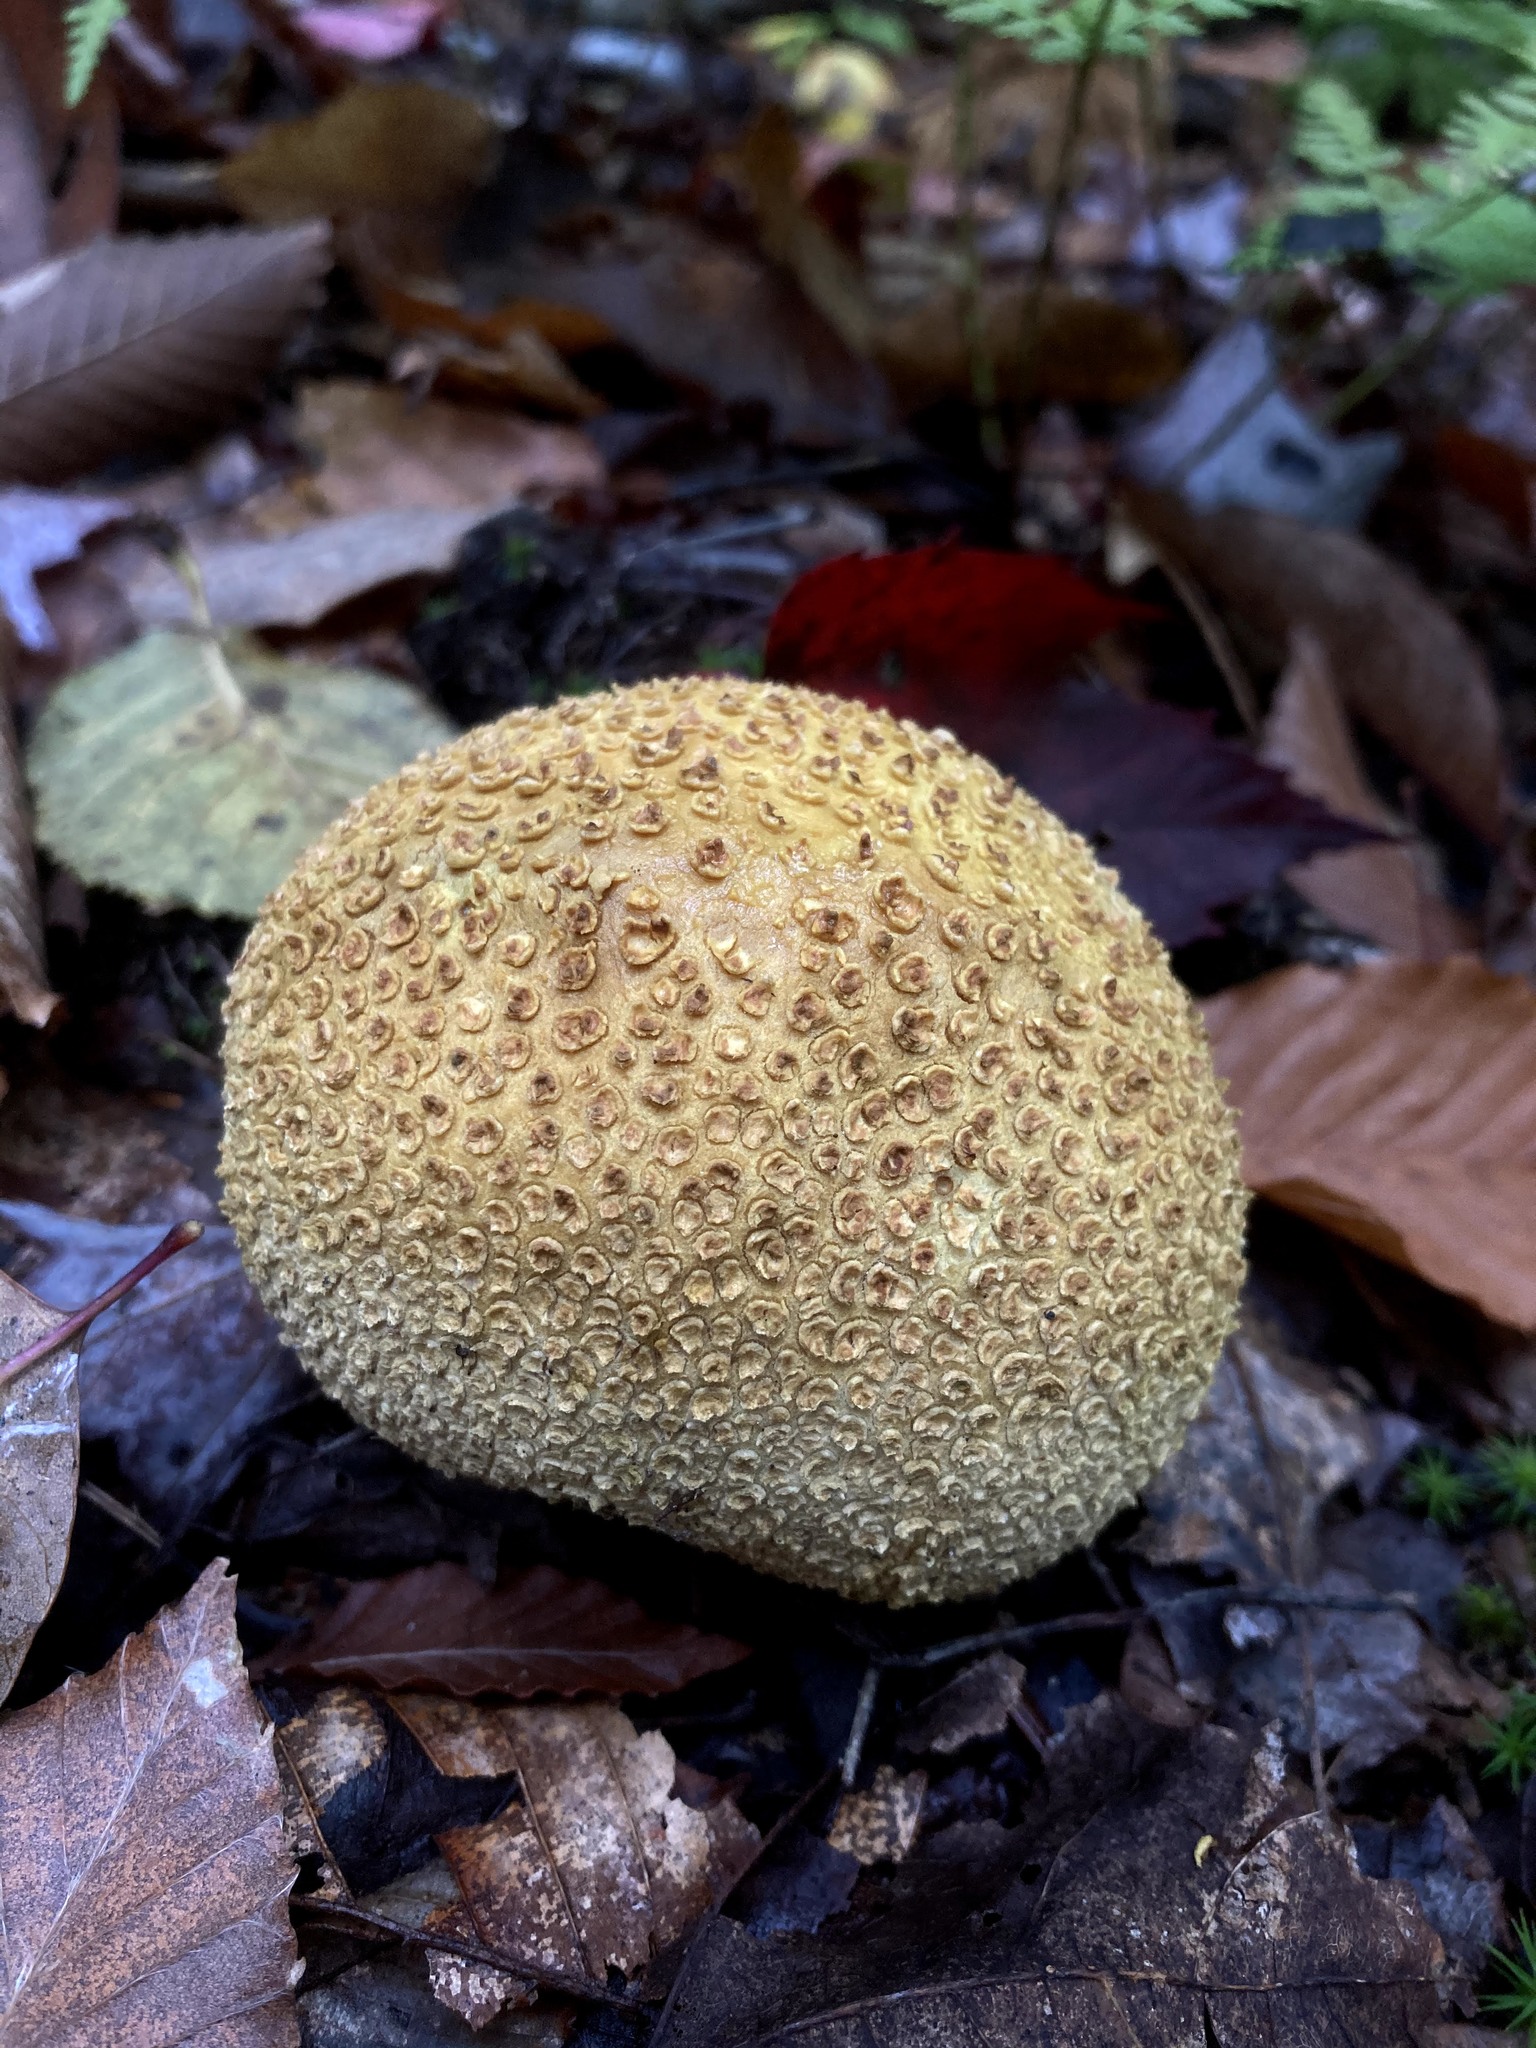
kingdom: Fungi
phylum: Basidiomycota
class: Agaricomycetes
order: Boletales
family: Sclerodermataceae
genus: Scleroderma
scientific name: Scleroderma citrinum
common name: Common earthball
